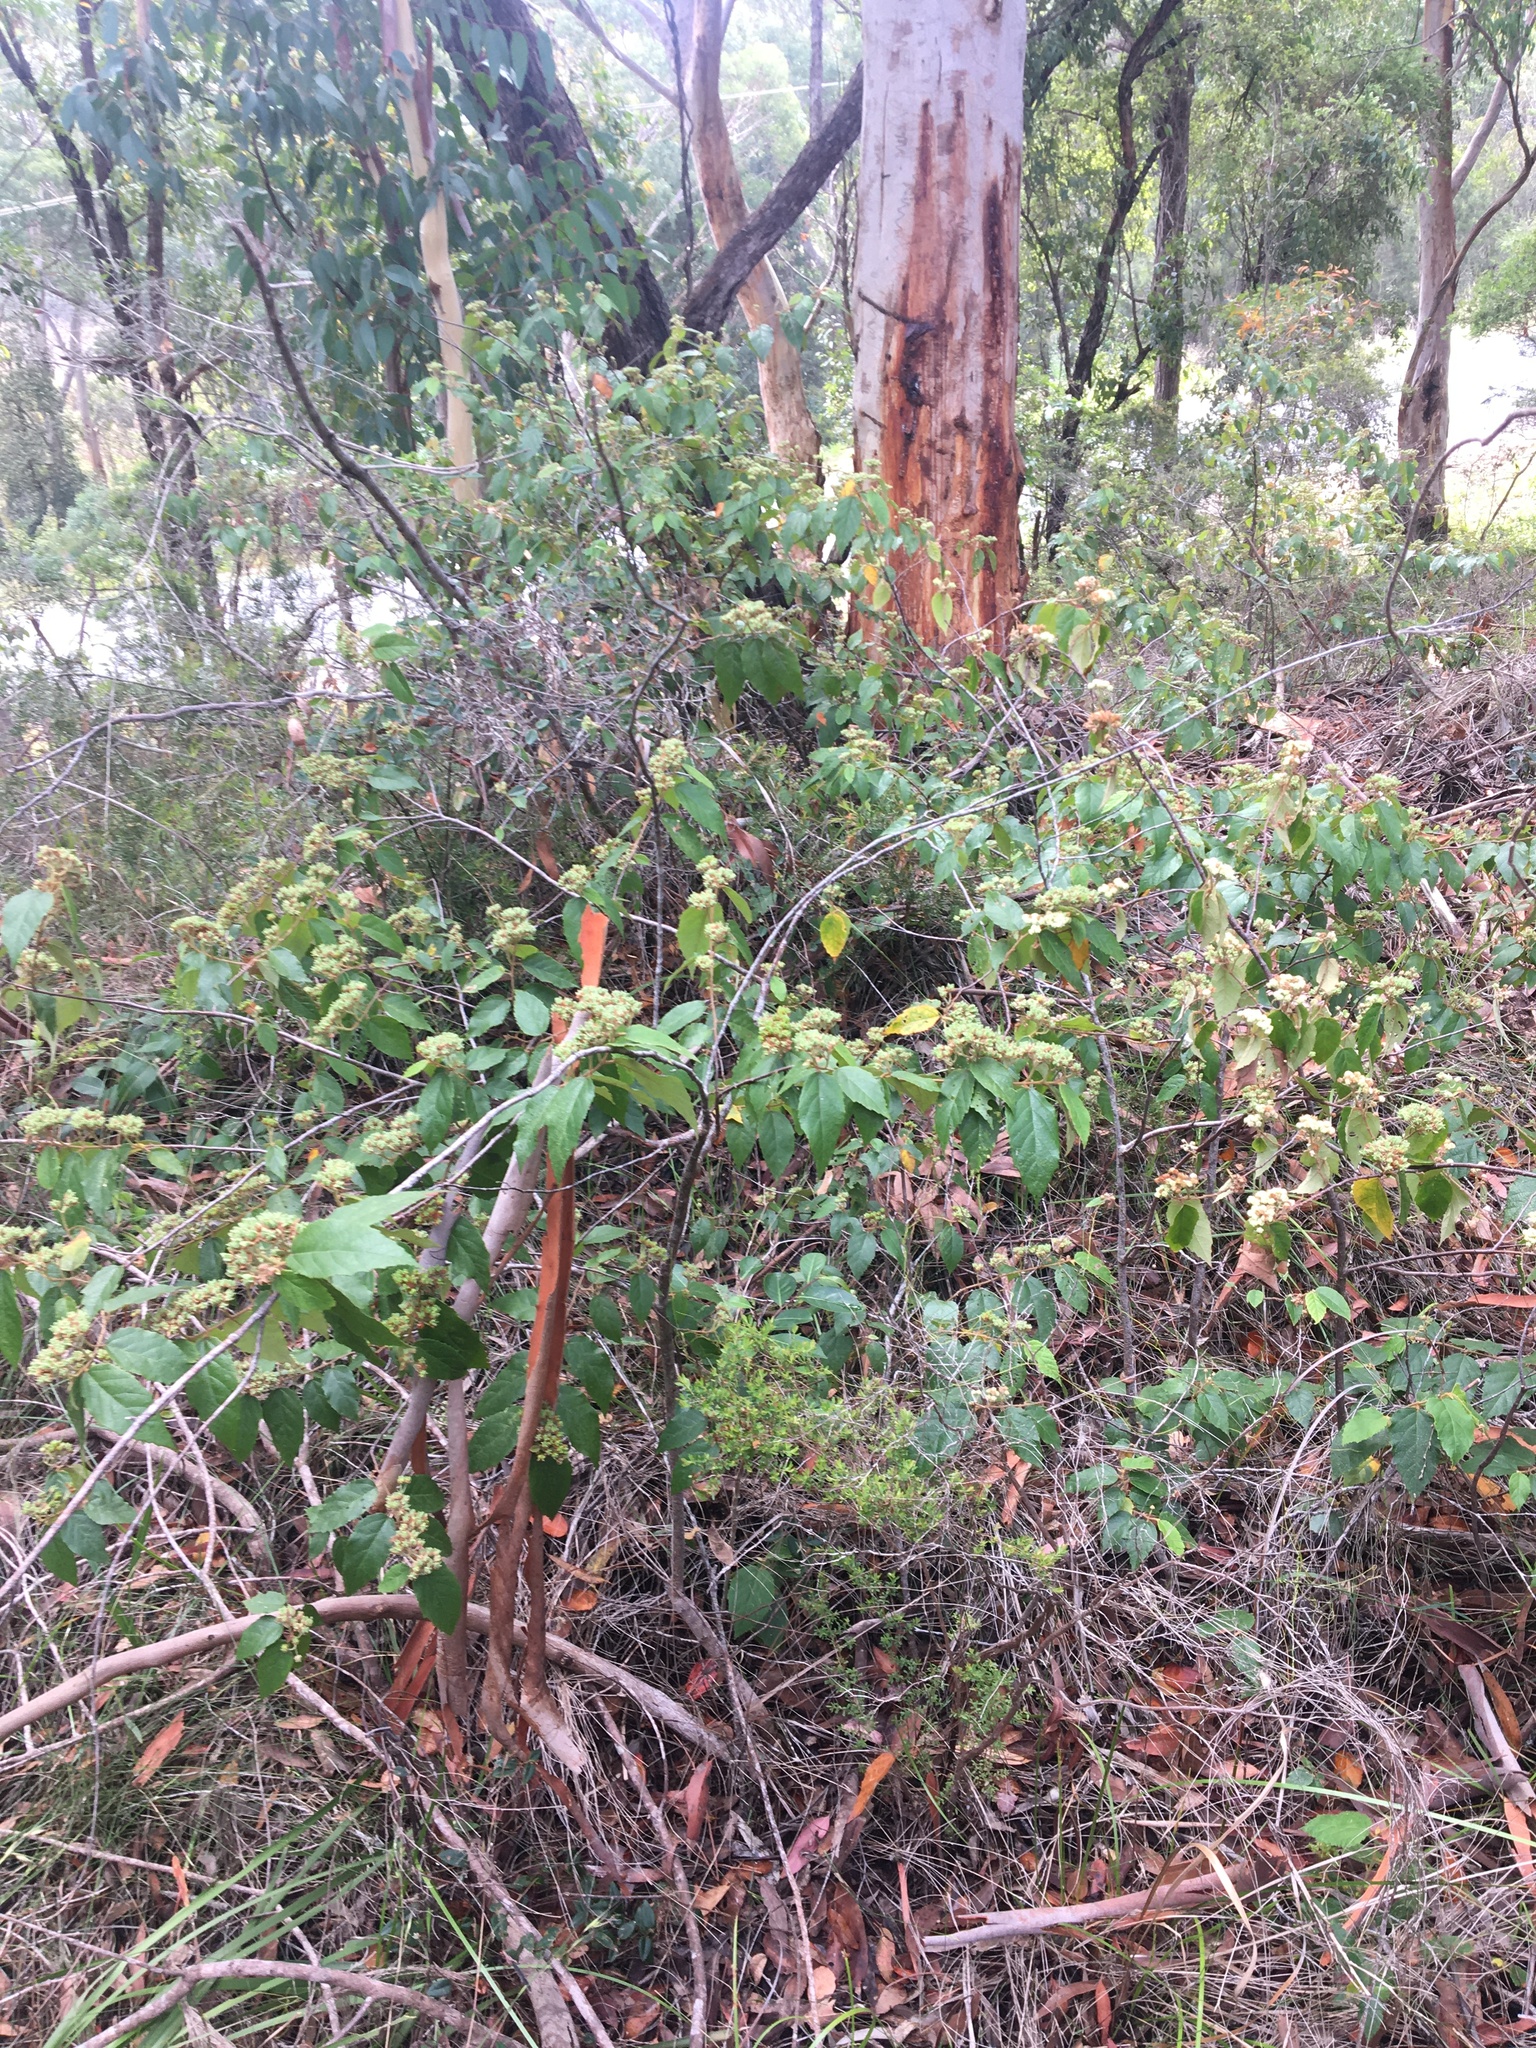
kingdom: Plantae
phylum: Tracheophyta
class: Magnoliopsida
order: Malvales
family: Malvaceae
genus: Seringia
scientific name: Seringia arborescens
